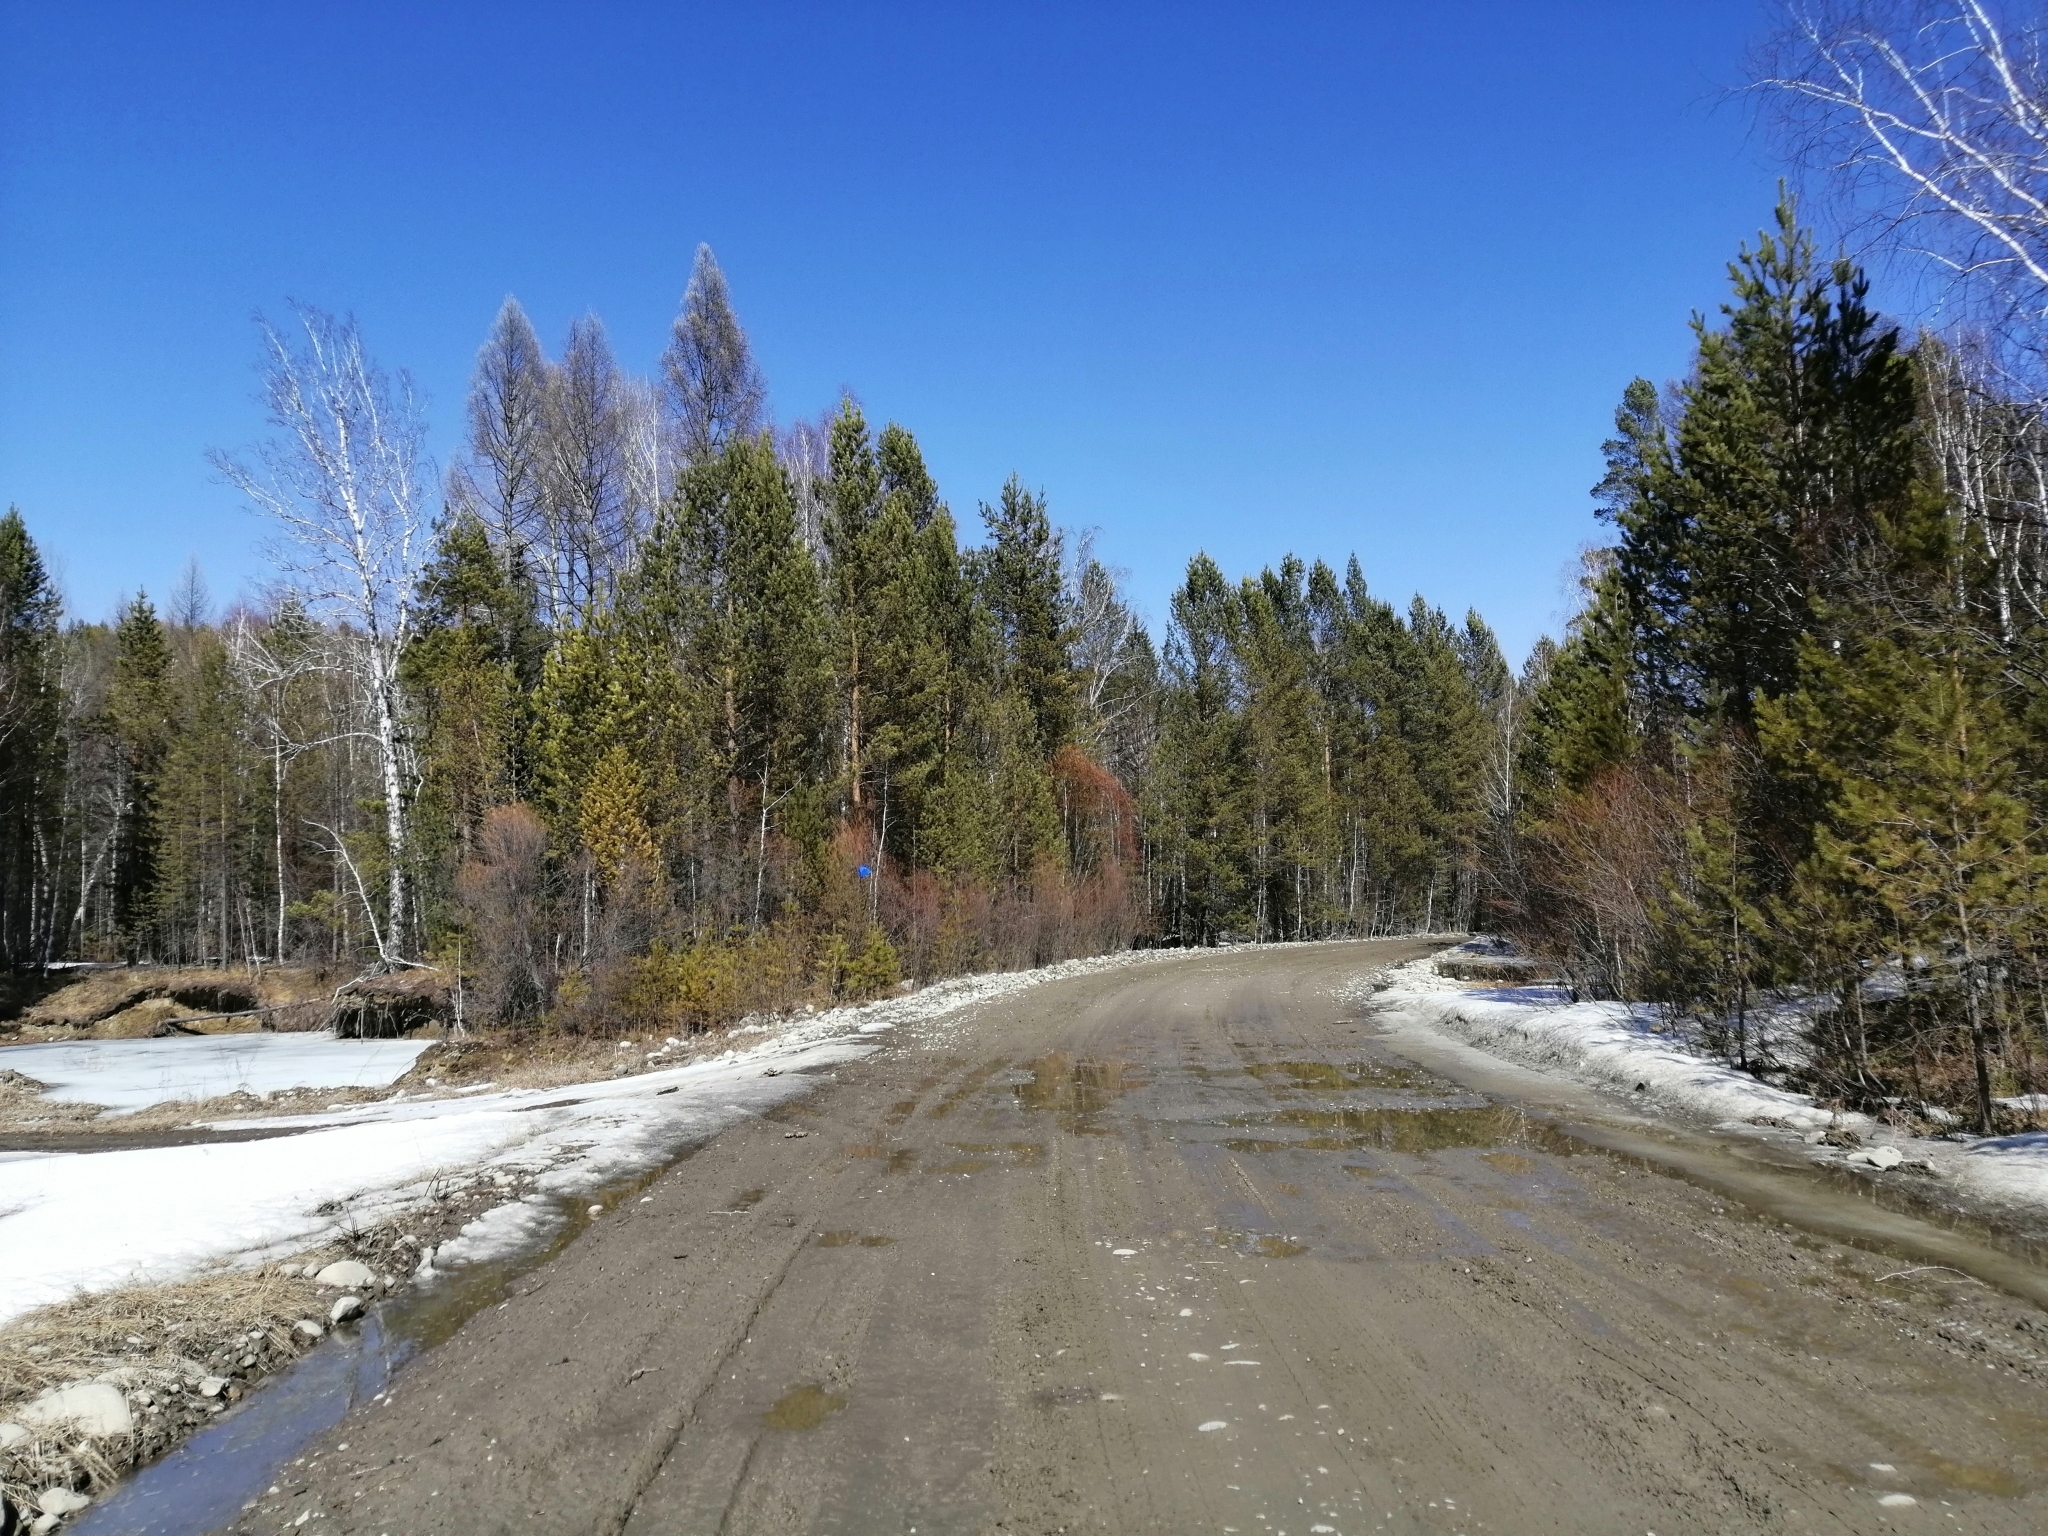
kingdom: Plantae
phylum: Tracheophyta
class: Pinopsida
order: Pinales
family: Pinaceae
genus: Pinus
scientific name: Pinus sylvestris
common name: Scots pine
